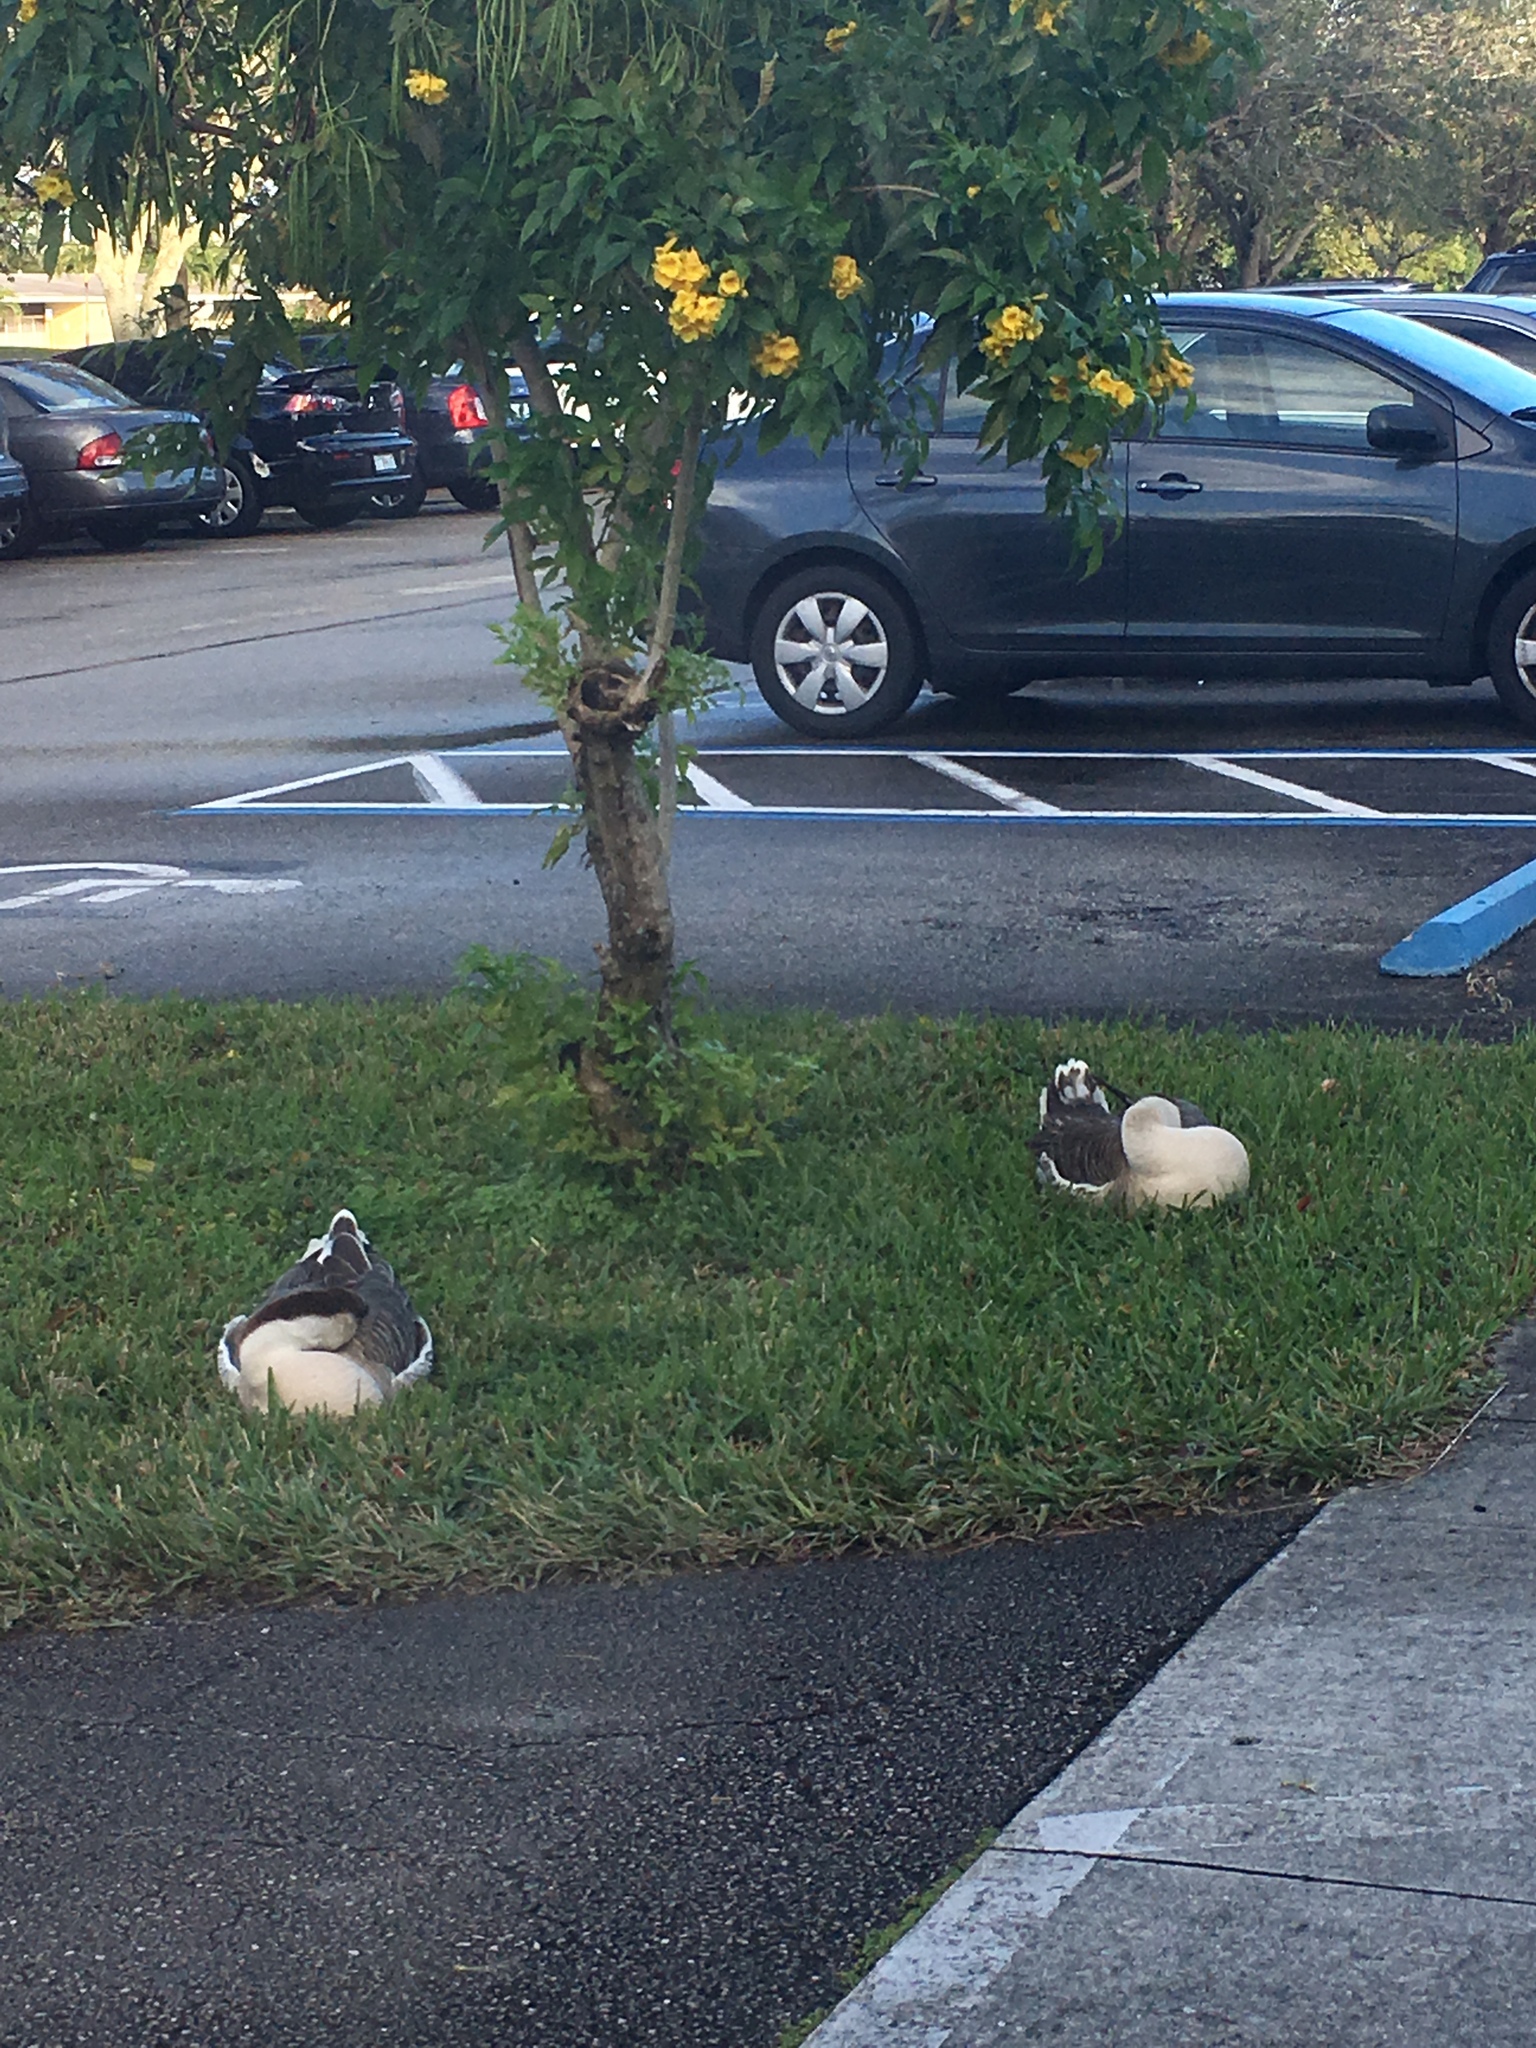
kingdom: Animalia
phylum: Chordata
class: Aves
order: Anseriformes
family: Anatidae
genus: Anser
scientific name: Anser cygnoides
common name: Swan goose
